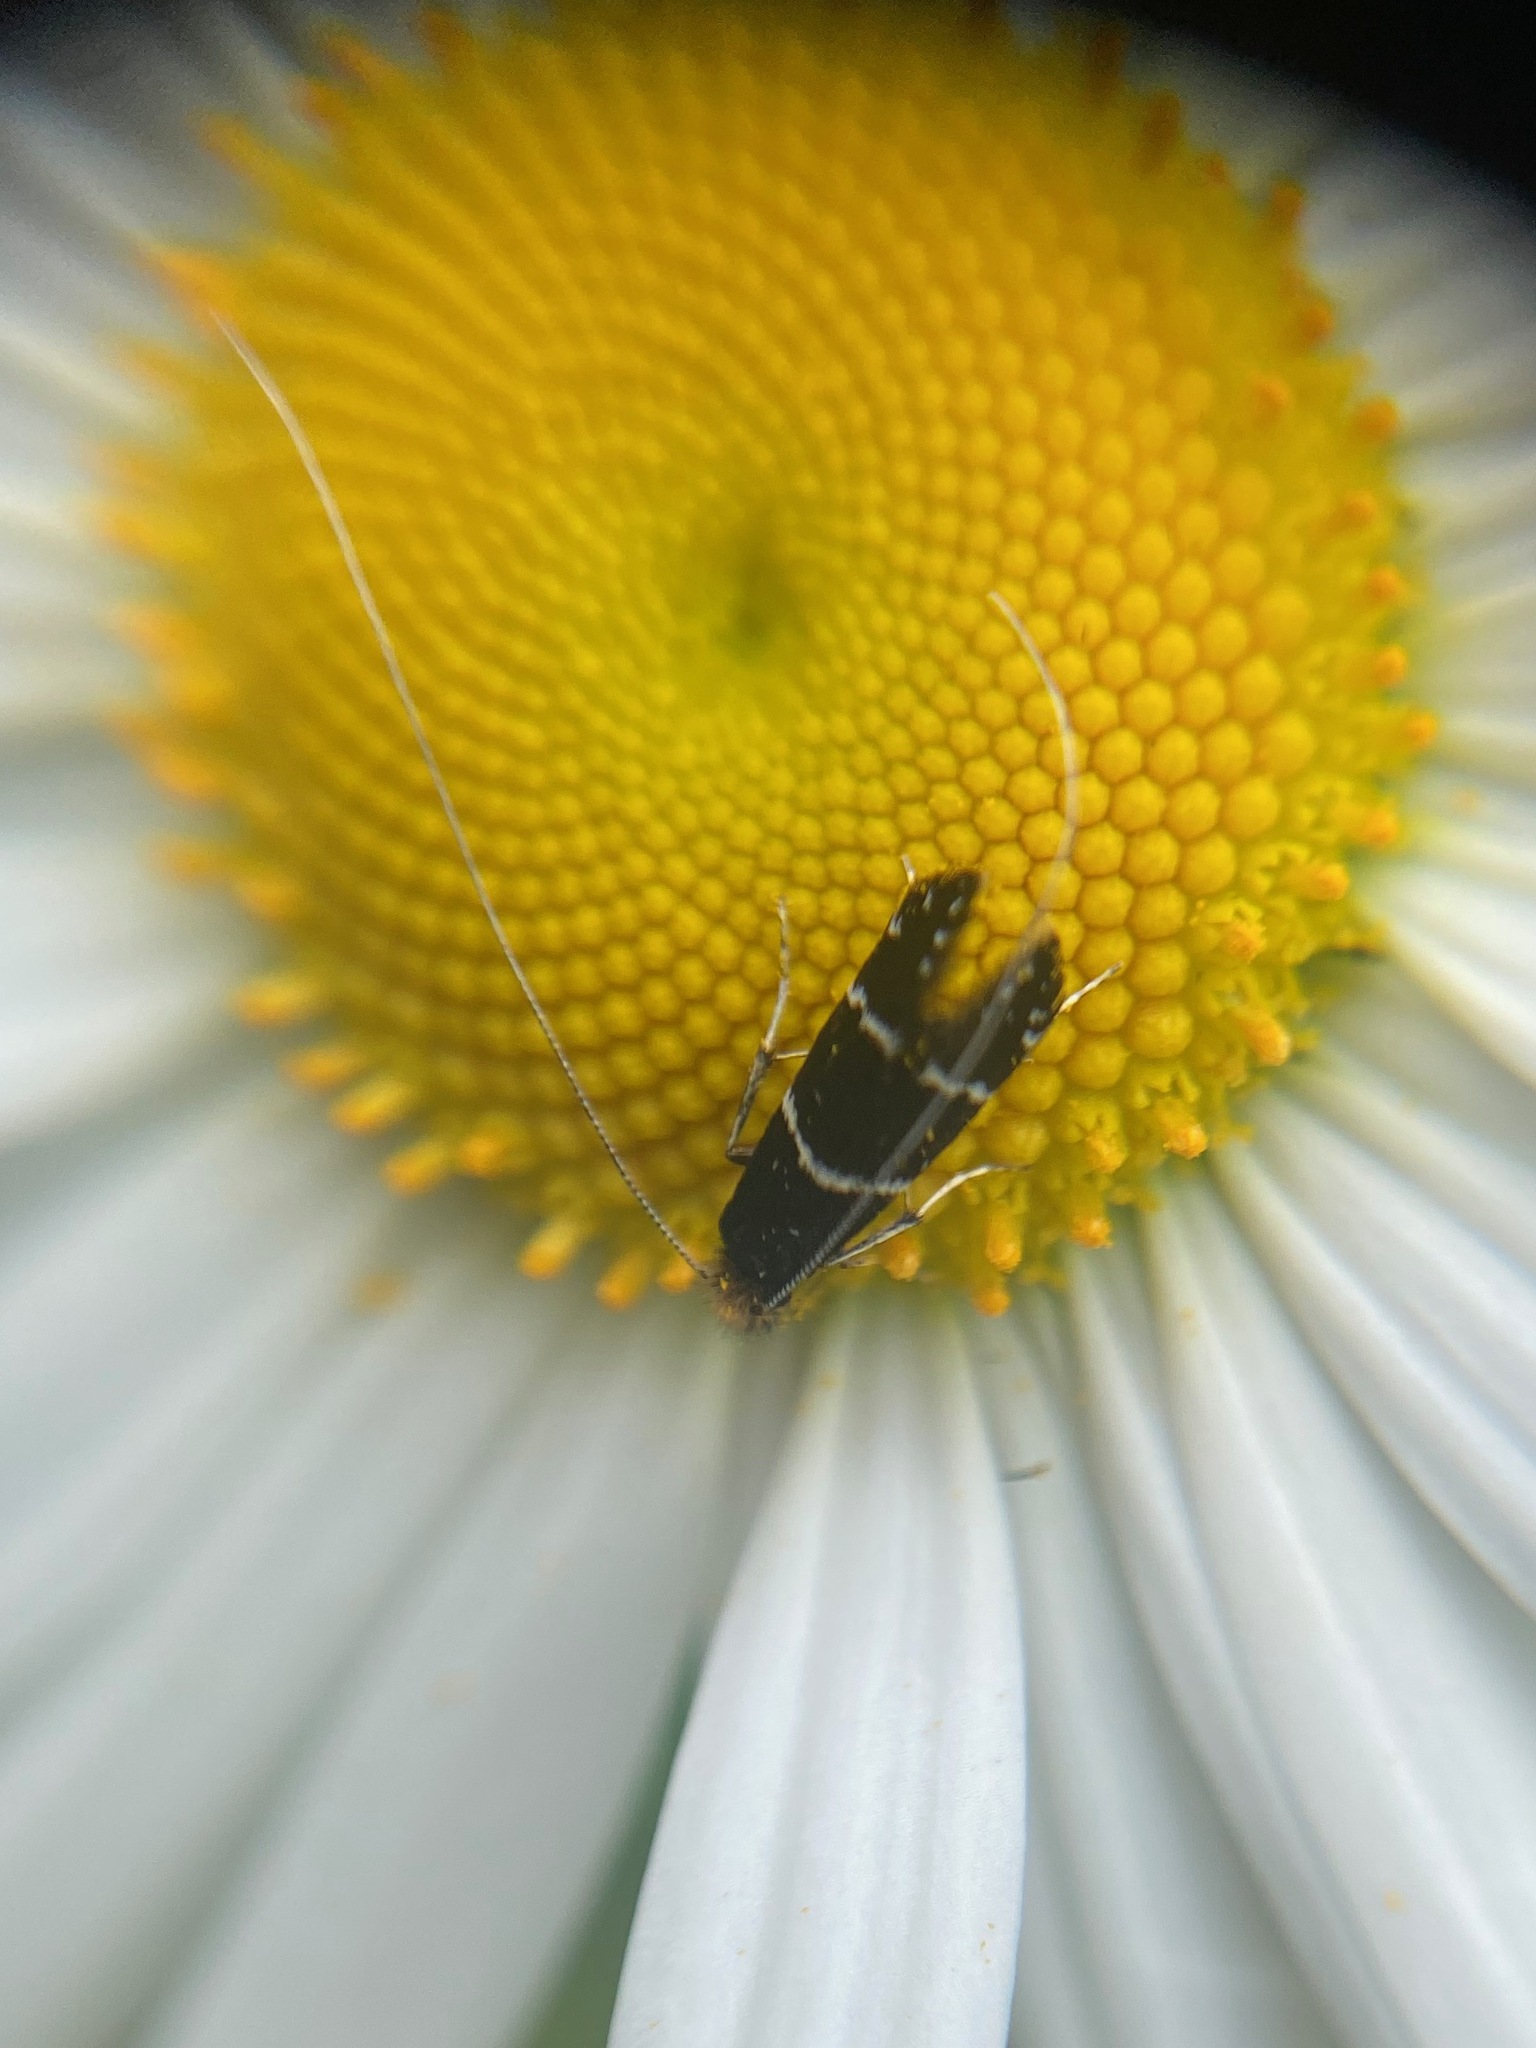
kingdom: Animalia
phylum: Arthropoda
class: Insecta
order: Lepidoptera
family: Adelidae
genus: Adela
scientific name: Adela septentrionella
